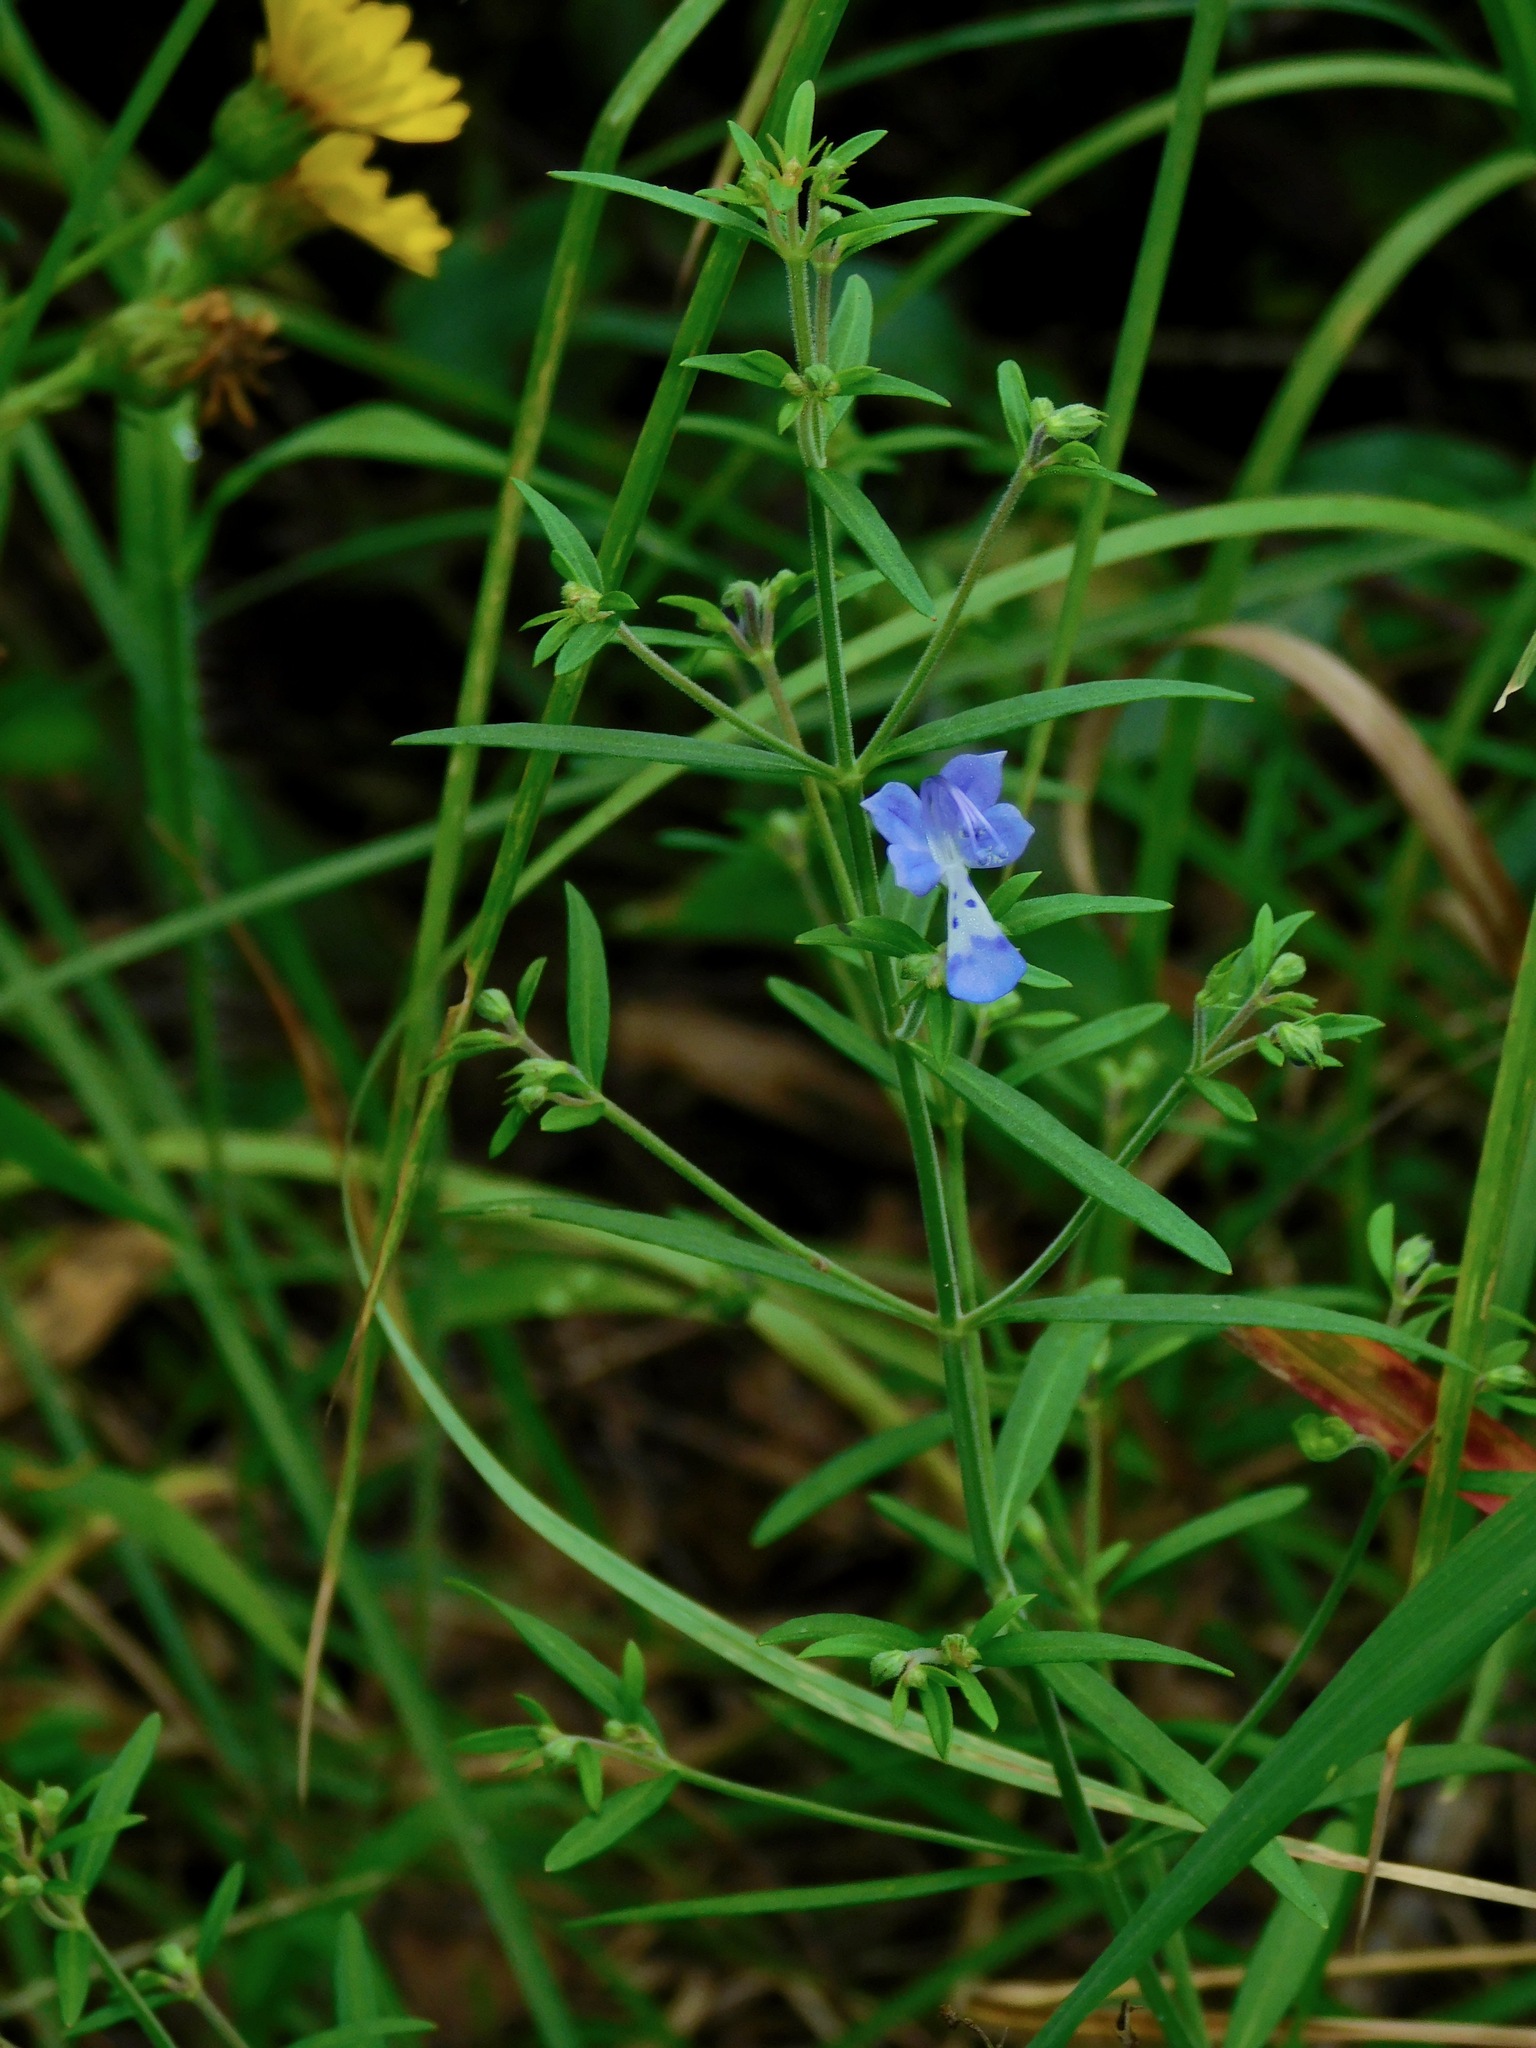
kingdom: Plantae
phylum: Tracheophyta
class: Magnoliopsida
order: Lamiales
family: Lamiaceae
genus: Trichostema
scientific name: Trichostema setaceum
